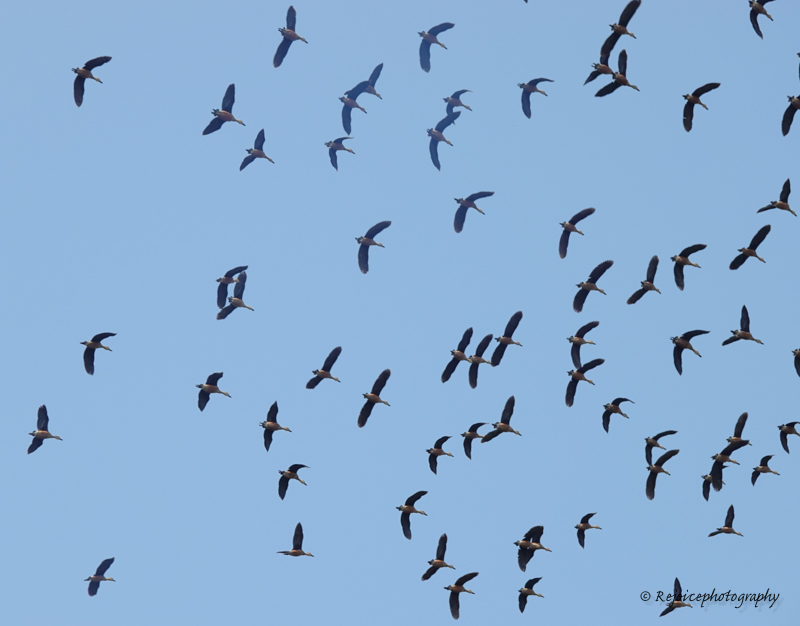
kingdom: Animalia
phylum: Chordata
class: Aves
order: Anseriformes
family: Anatidae
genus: Dendrocygna
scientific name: Dendrocygna javanica
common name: Lesser whistling-duck
